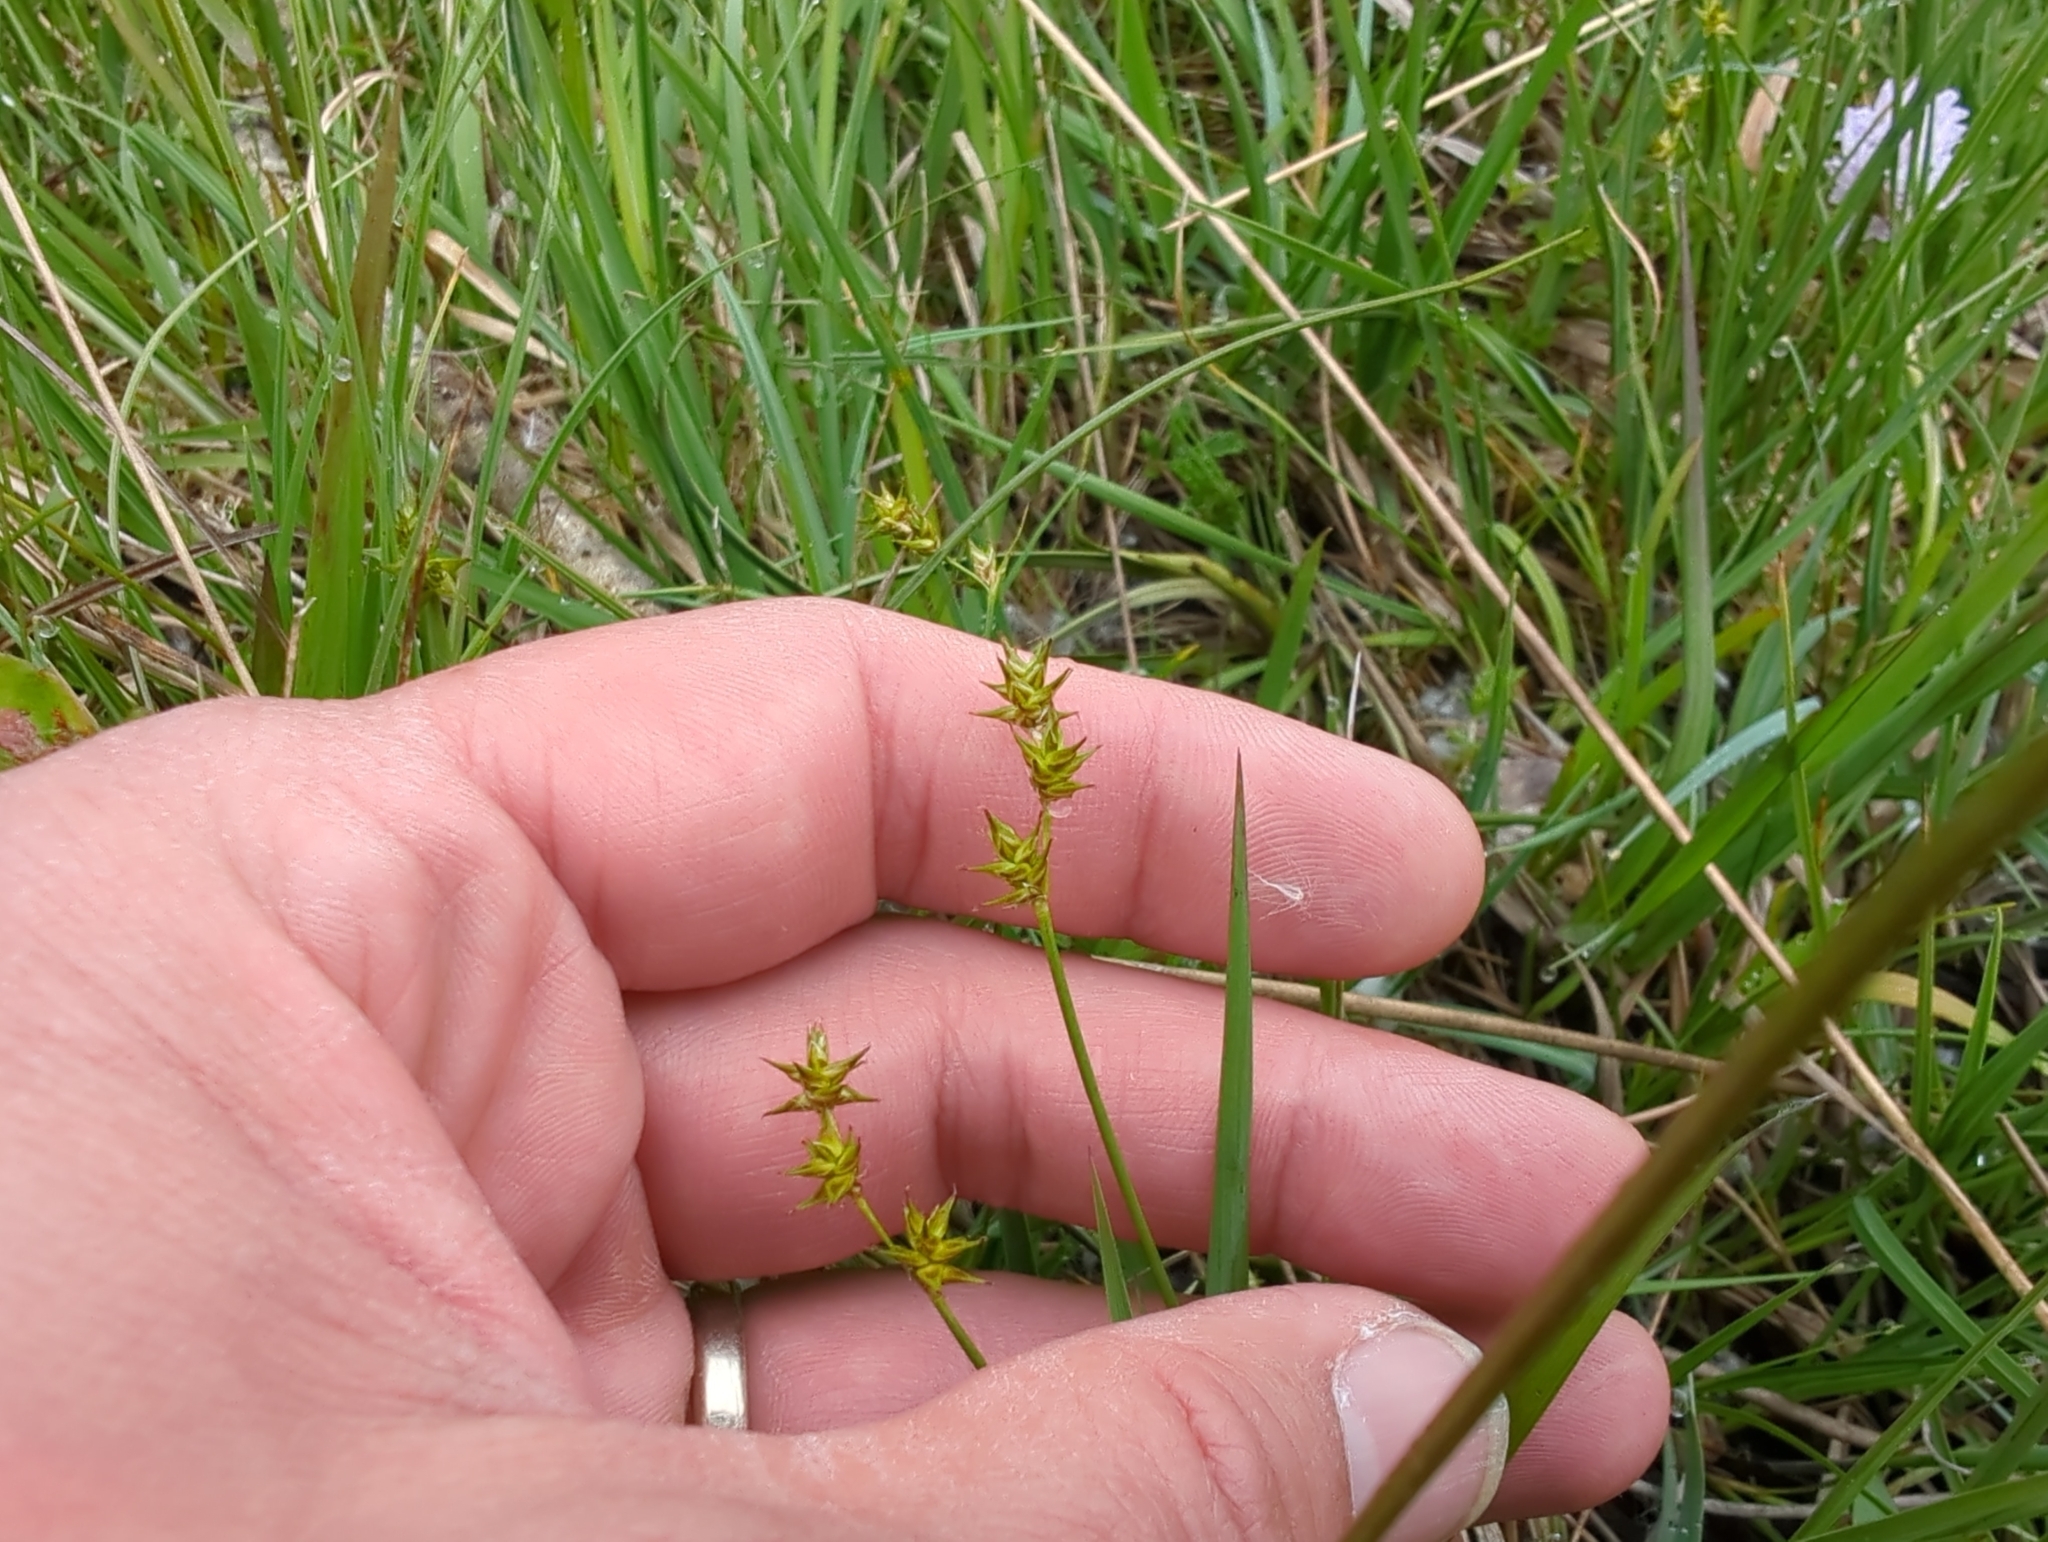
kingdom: Plantae
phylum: Tracheophyta
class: Liliopsida
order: Poales
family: Cyperaceae
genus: Carex
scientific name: Carex echinata
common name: Star sedge
